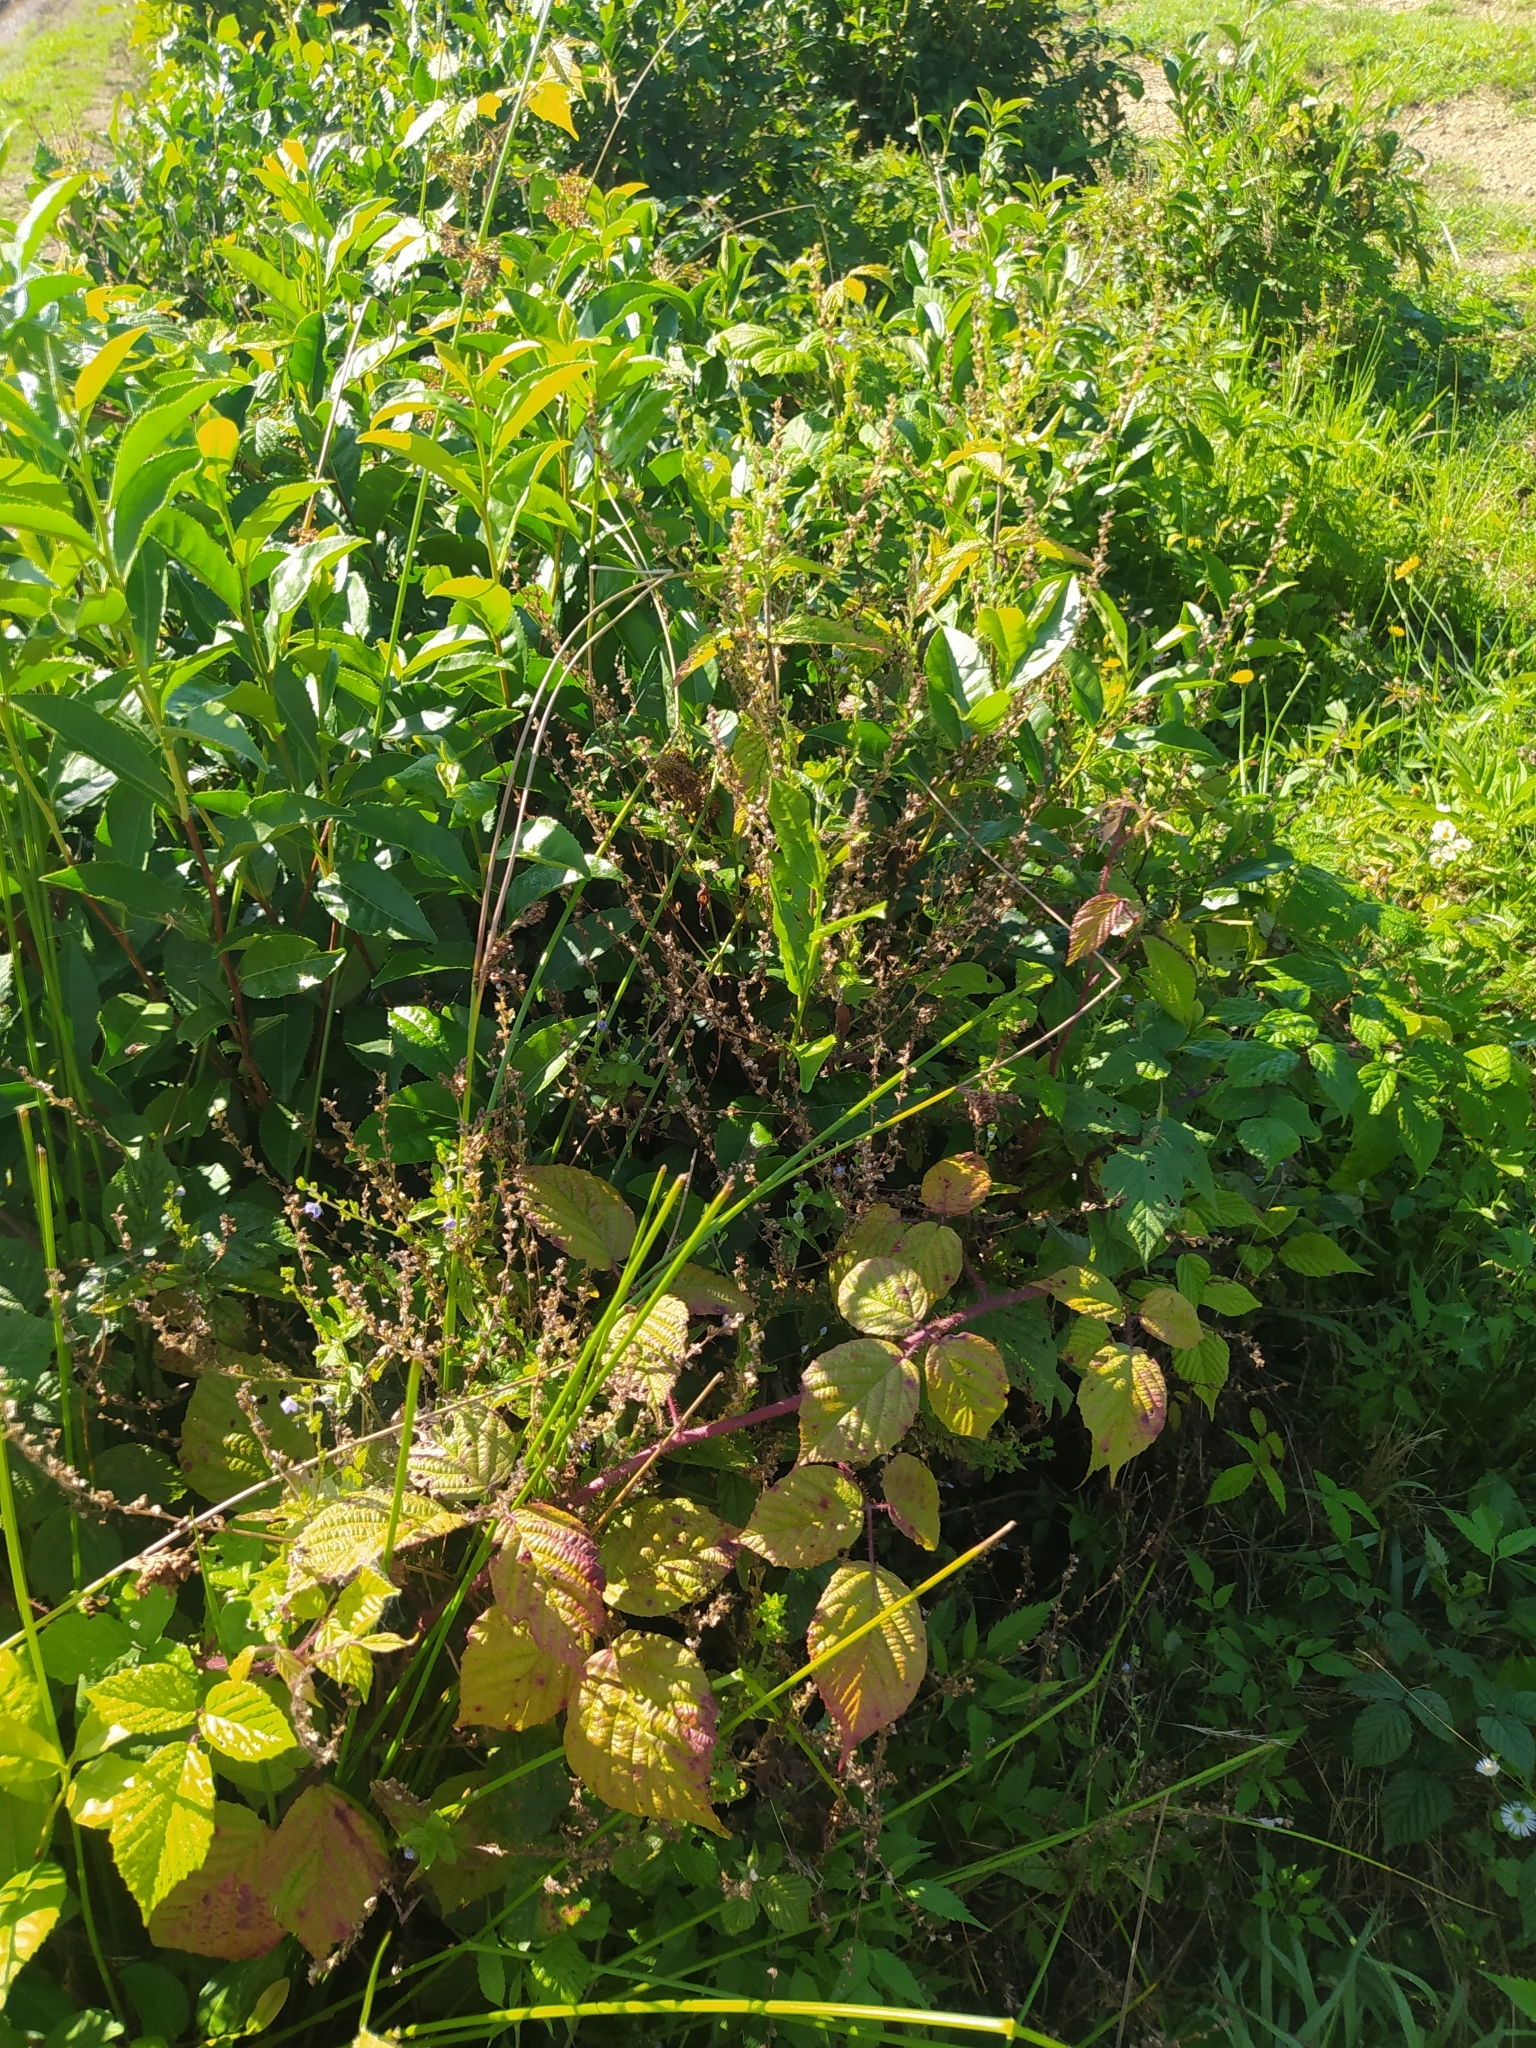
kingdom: Plantae
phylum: Tracheophyta
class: Liliopsida
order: Poales
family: Juncaceae
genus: Juncus
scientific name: Juncus effusus
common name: Soft rush
